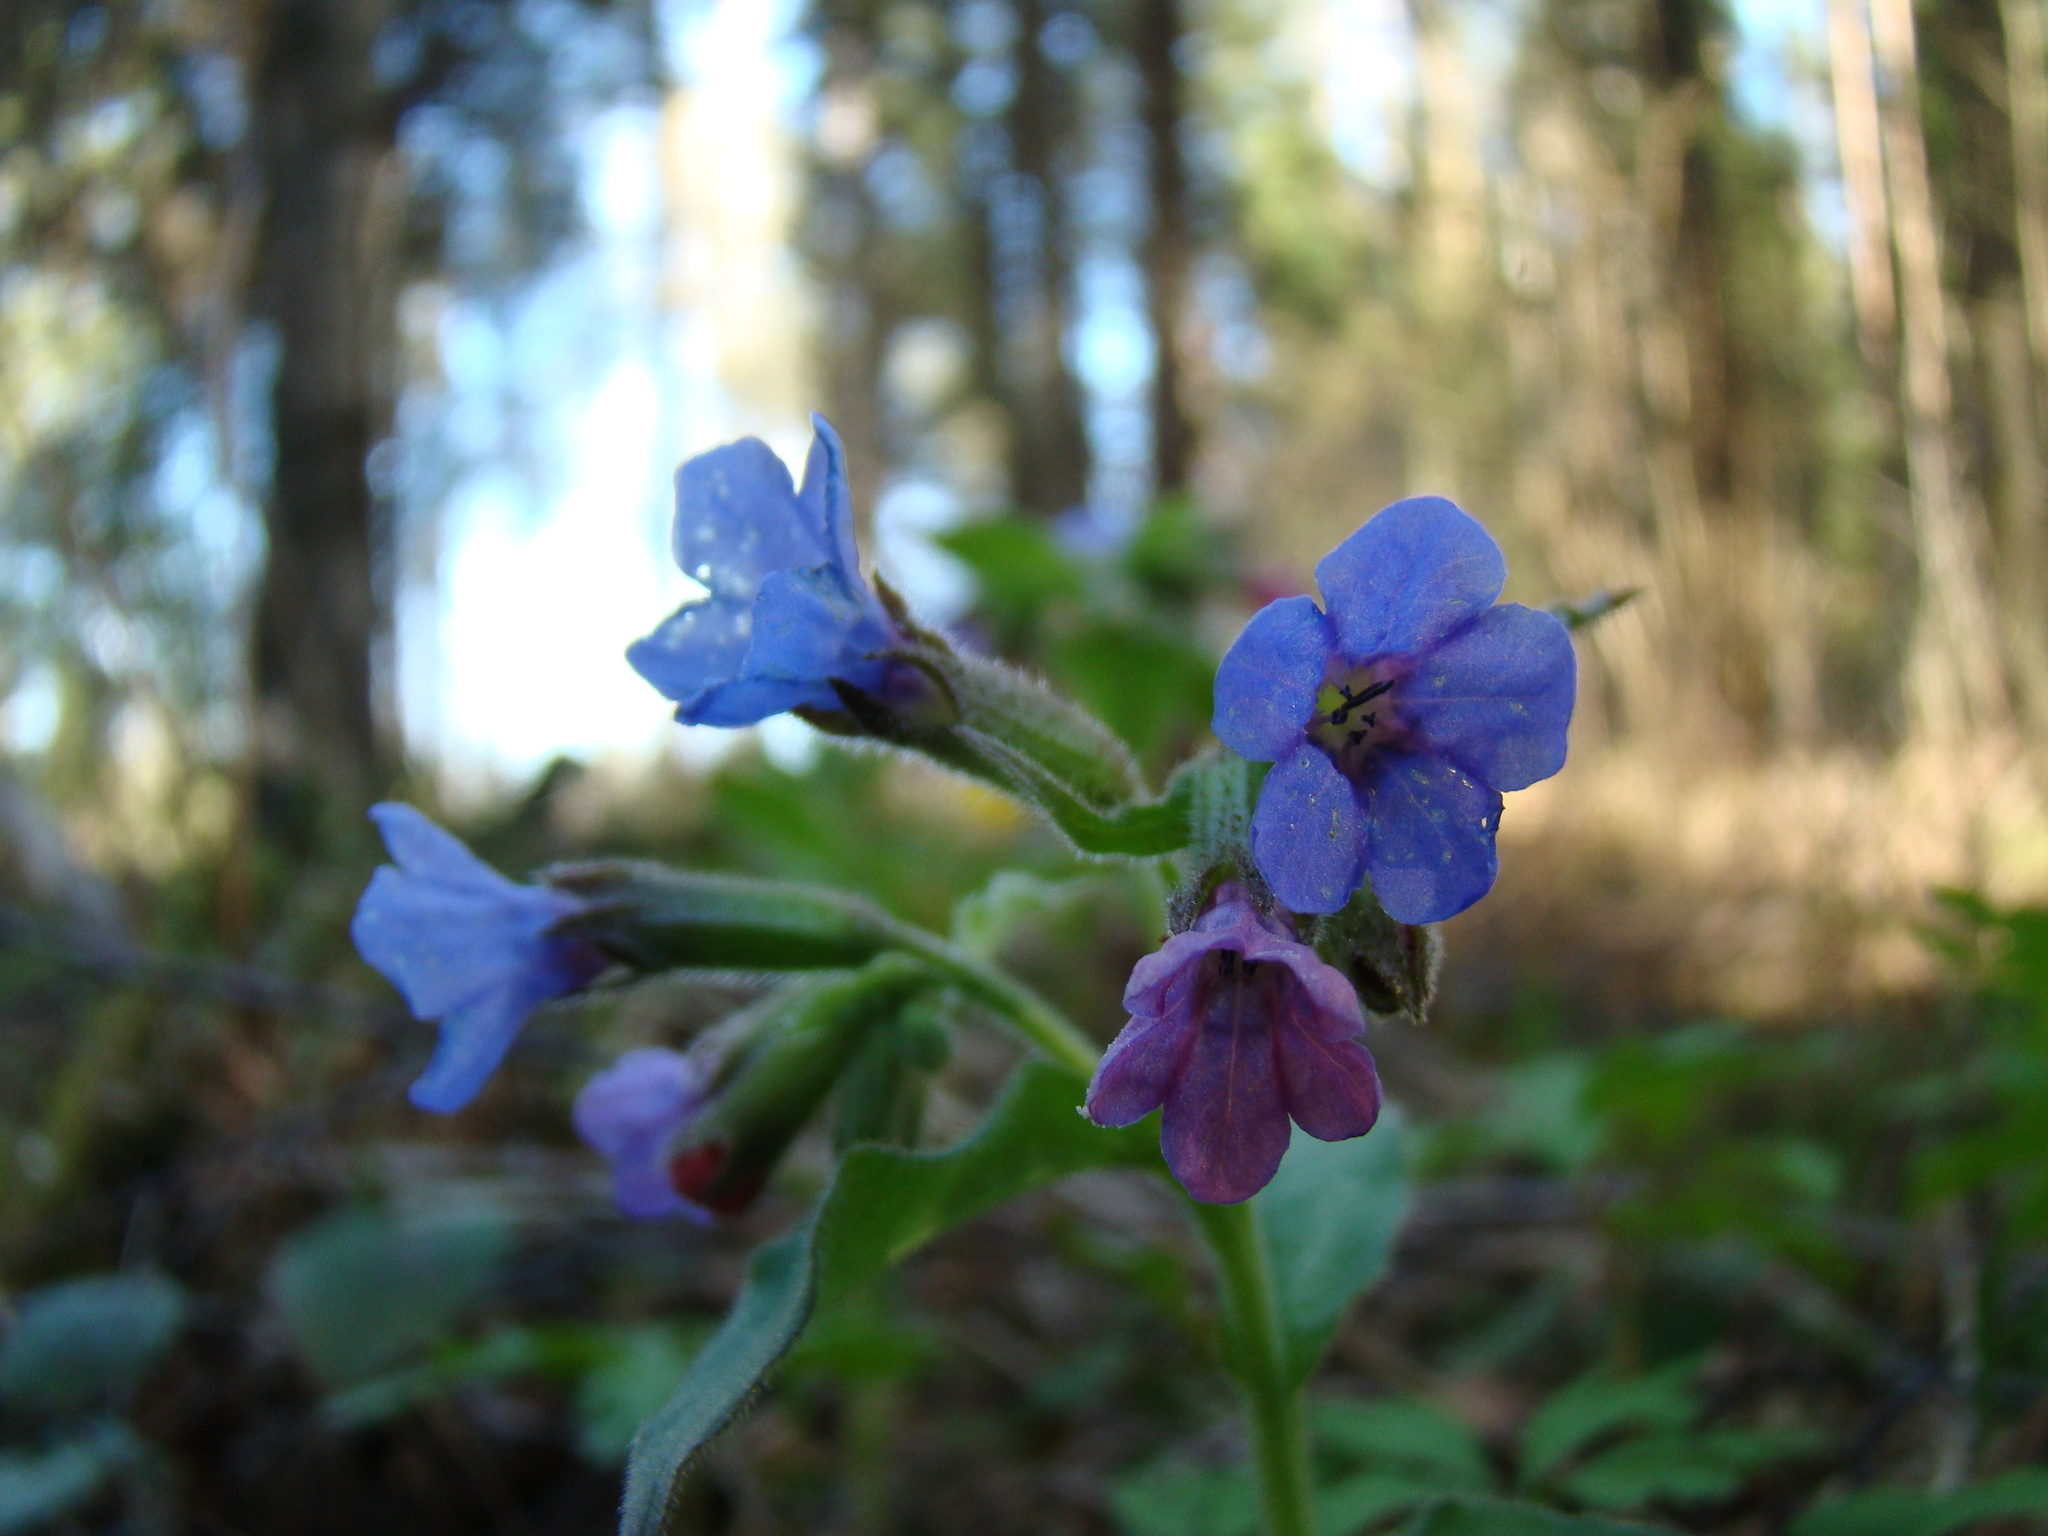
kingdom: Plantae
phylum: Tracheophyta
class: Magnoliopsida
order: Boraginales
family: Boraginaceae
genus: Pulmonaria
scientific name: Pulmonaria obscura
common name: Suffolk lungwort
